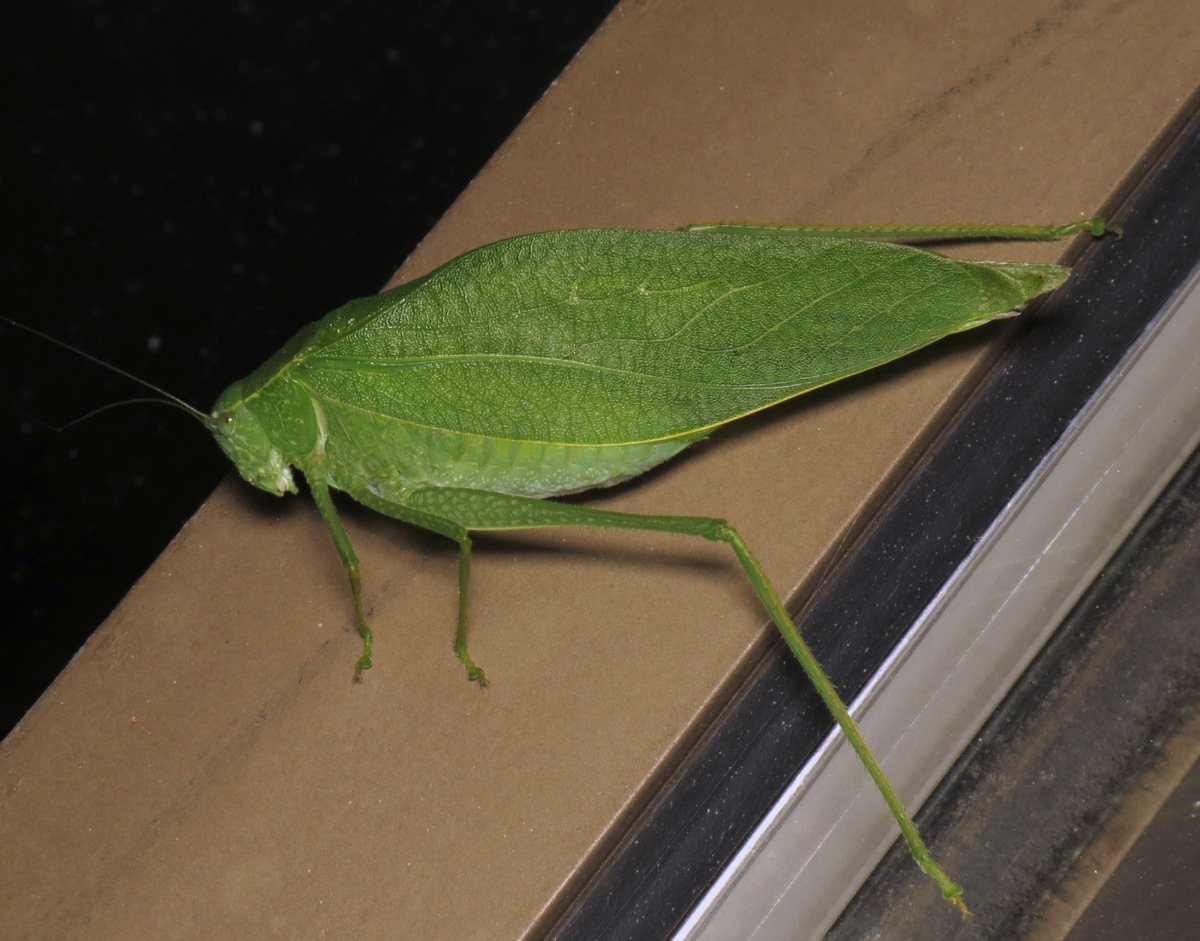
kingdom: Animalia
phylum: Arthropoda
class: Insecta
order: Orthoptera
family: Tettigoniidae
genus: Microcentrum
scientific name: Microcentrum rhombifolium
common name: Broad-winged katydid
